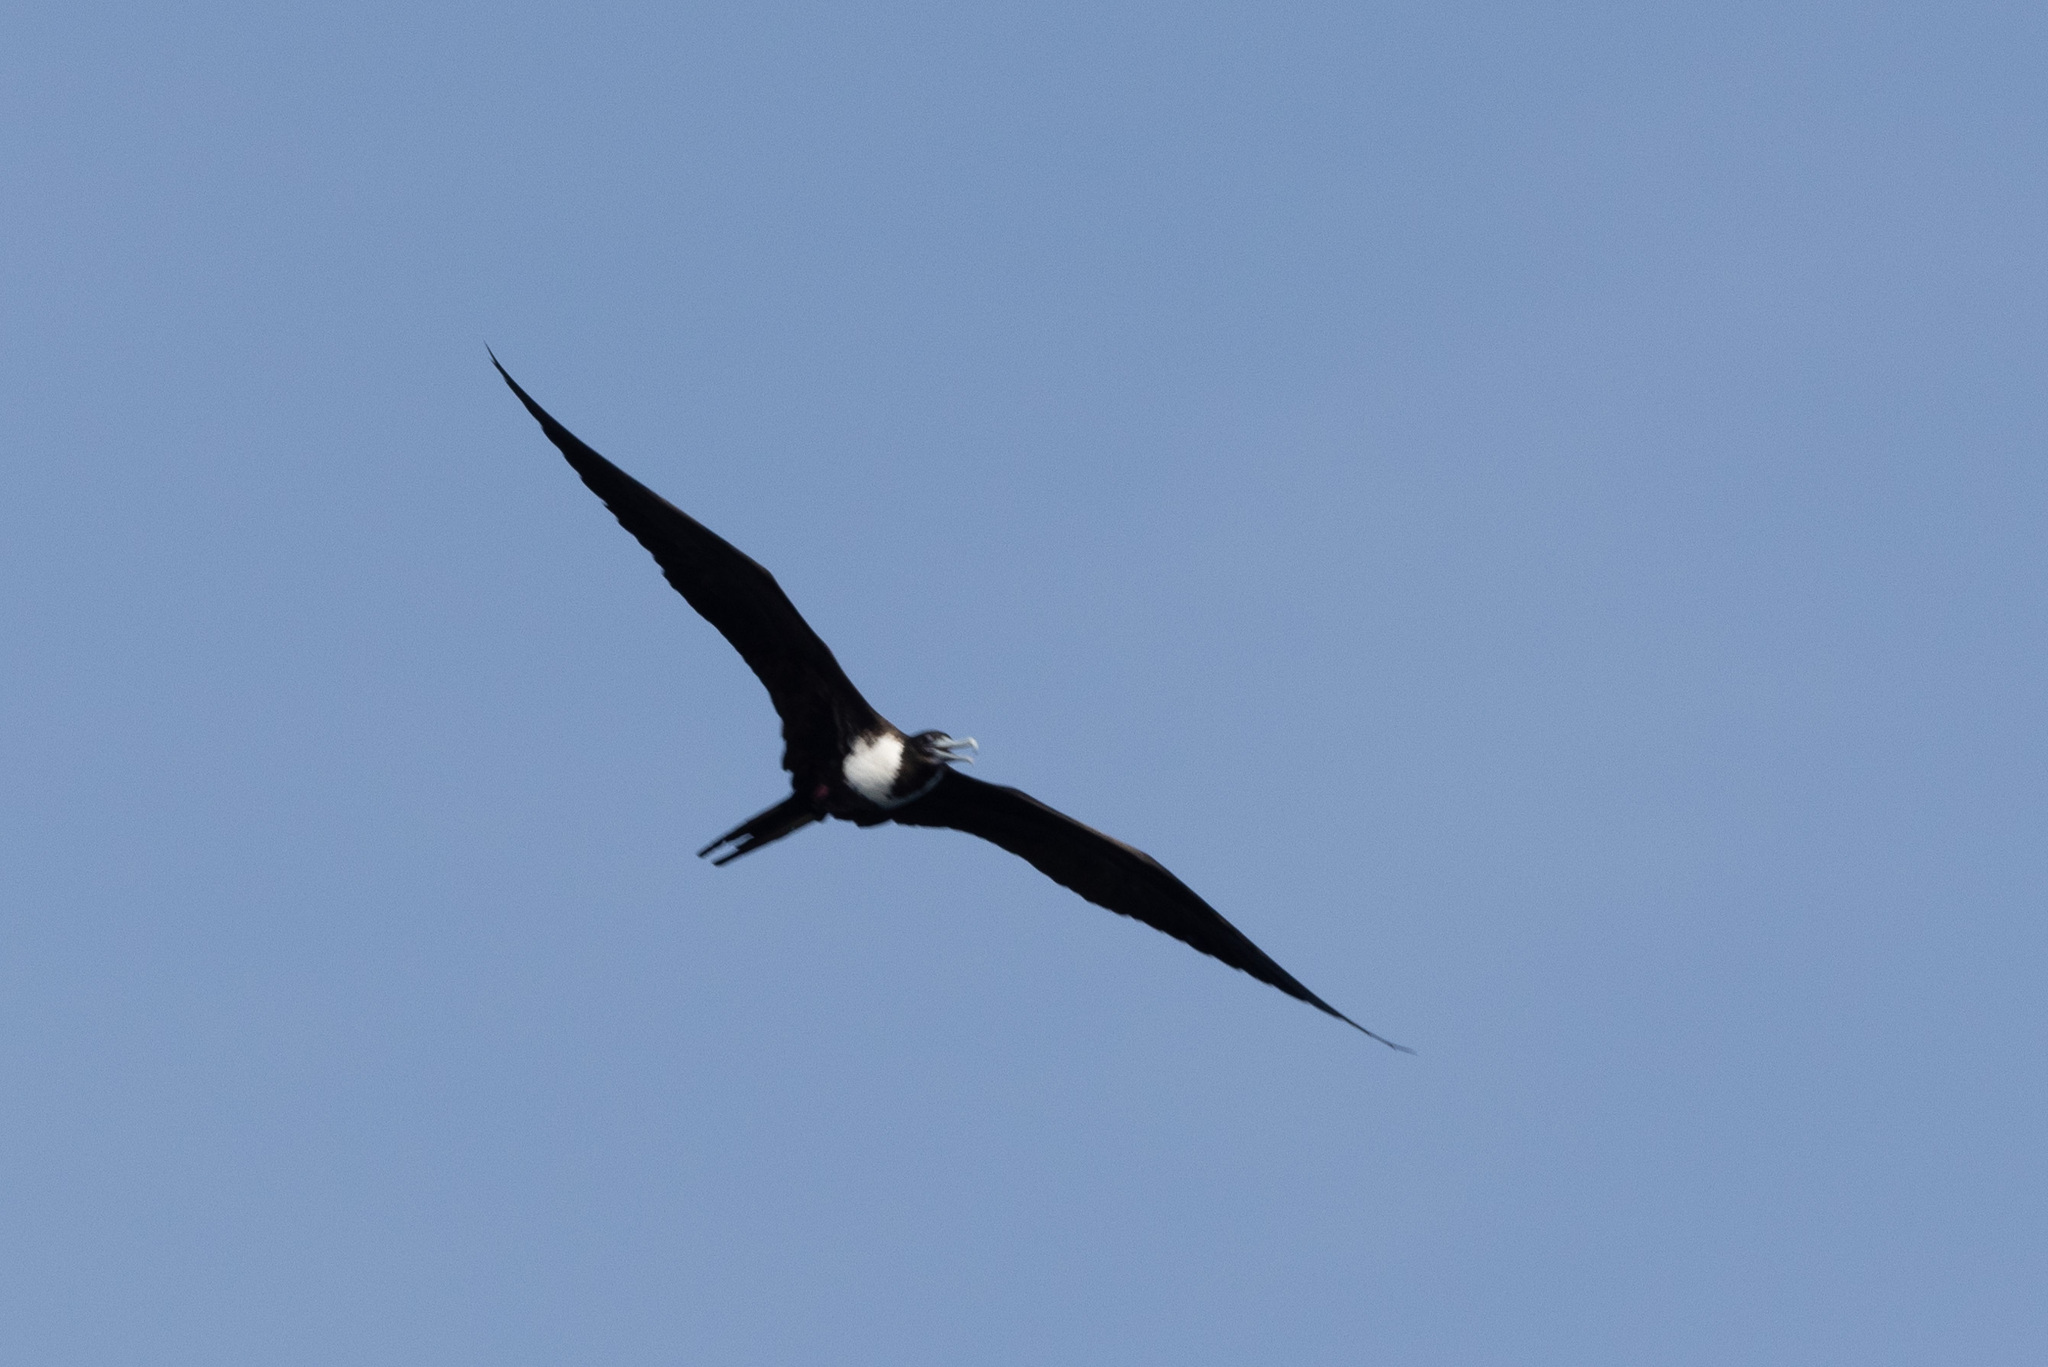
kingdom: Animalia
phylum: Chordata
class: Aves
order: Suliformes
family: Fregatidae
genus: Fregata
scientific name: Fregata magnificens
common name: Magnificent frigatebird
